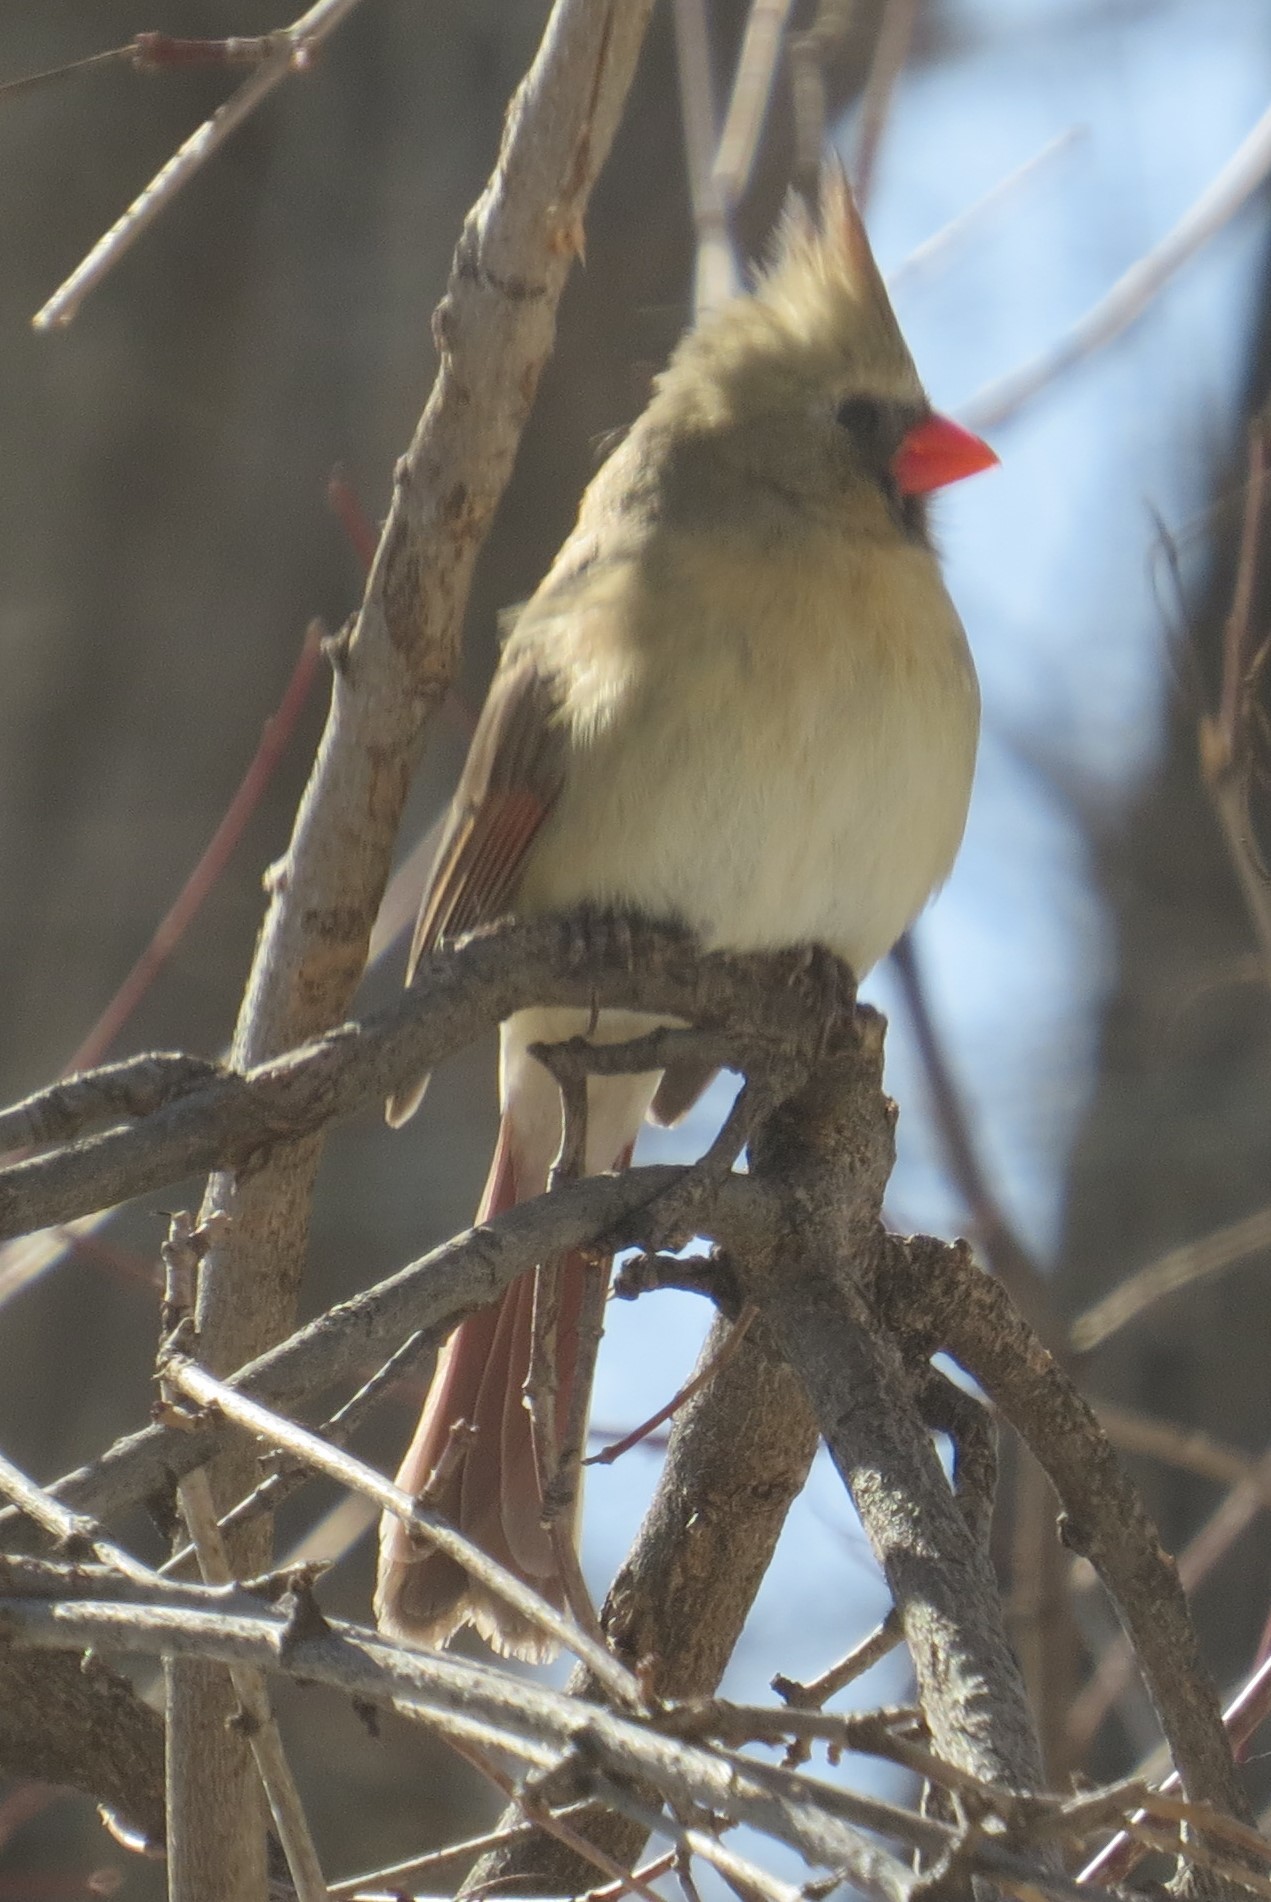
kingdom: Animalia
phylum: Chordata
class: Aves
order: Passeriformes
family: Cardinalidae
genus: Cardinalis
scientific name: Cardinalis cardinalis
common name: Northern cardinal
